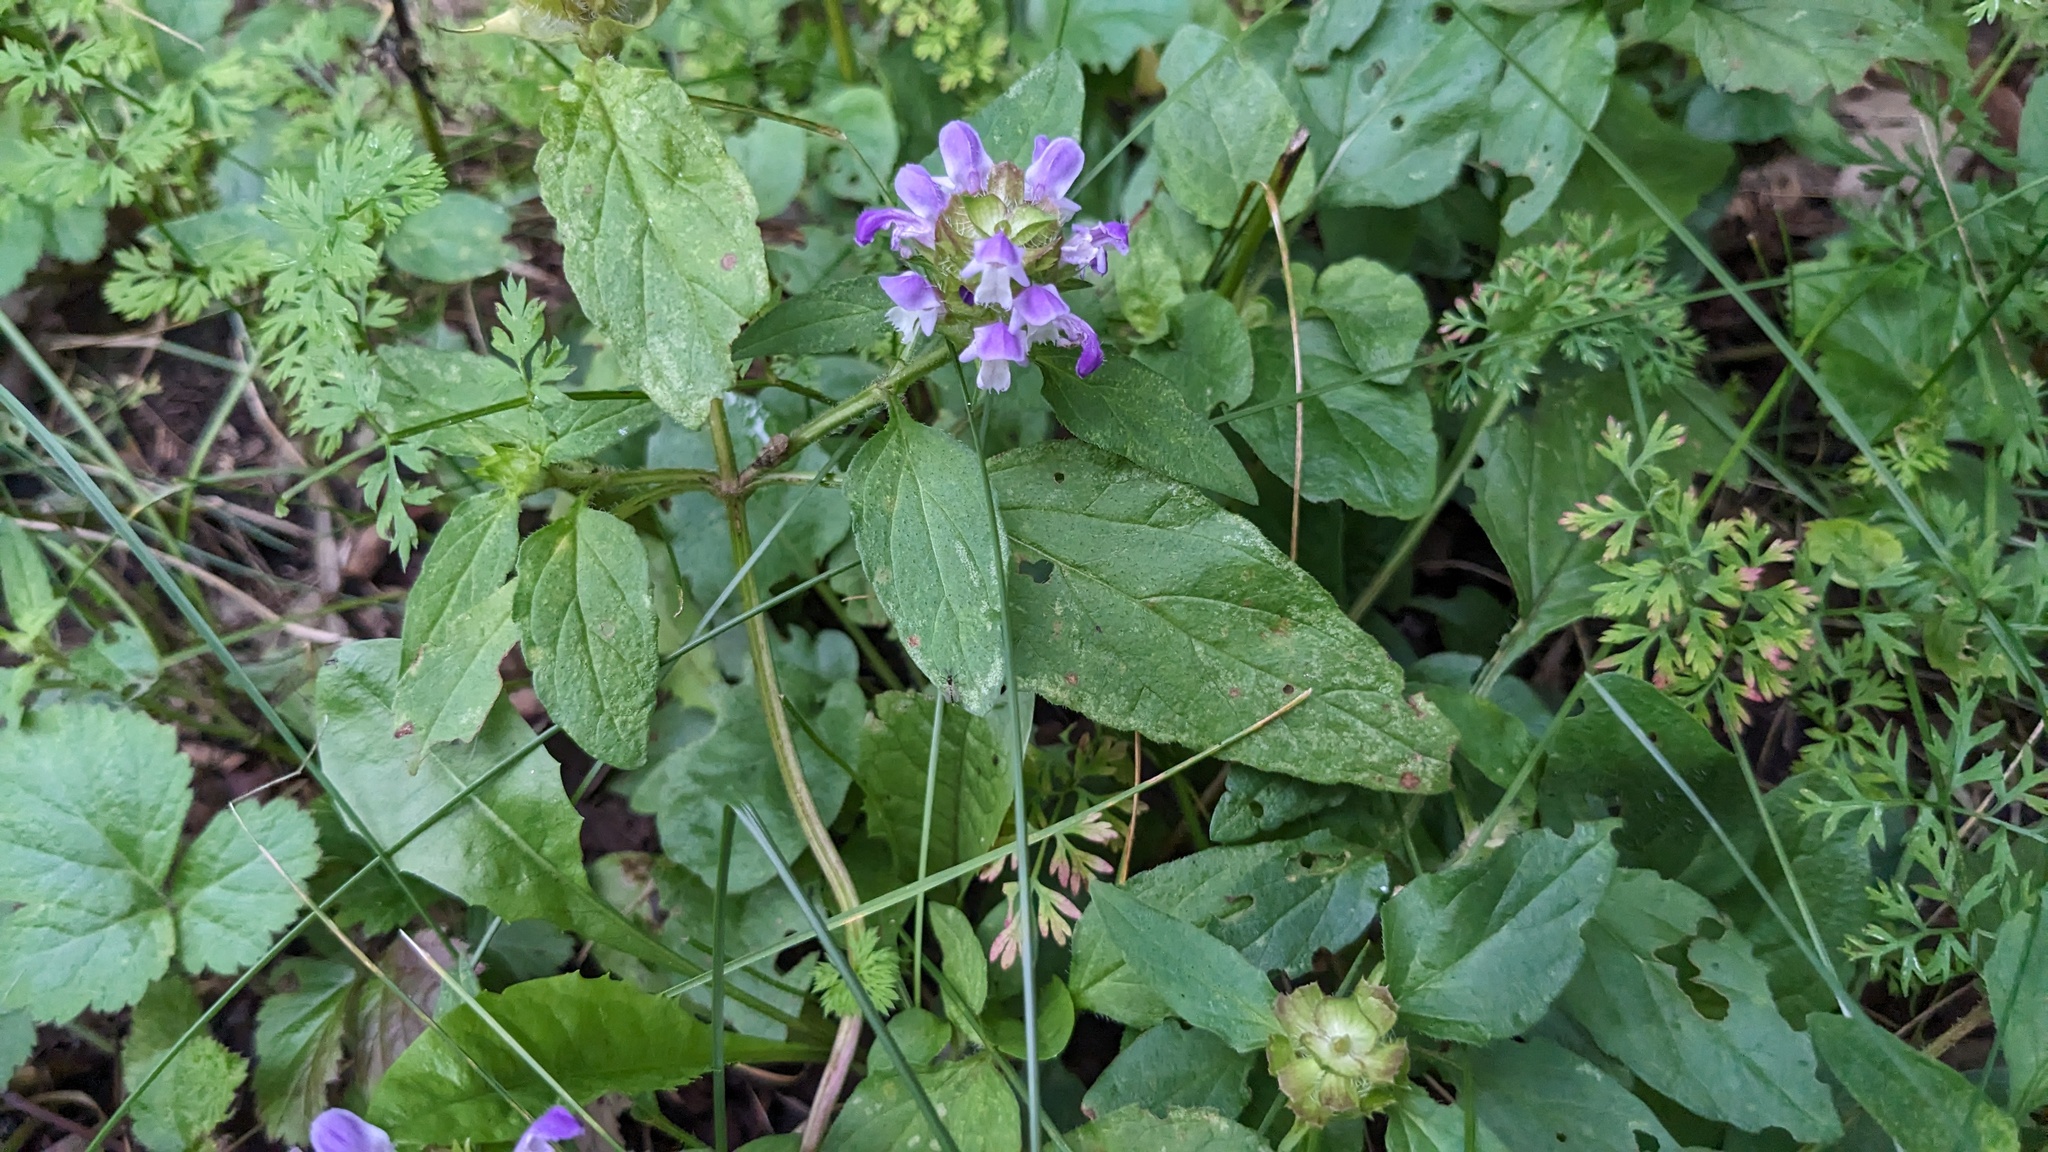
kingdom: Plantae
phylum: Tracheophyta
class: Magnoliopsida
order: Lamiales
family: Lamiaceae
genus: Prunella
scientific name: Prunella vulgaris
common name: Heal-all
